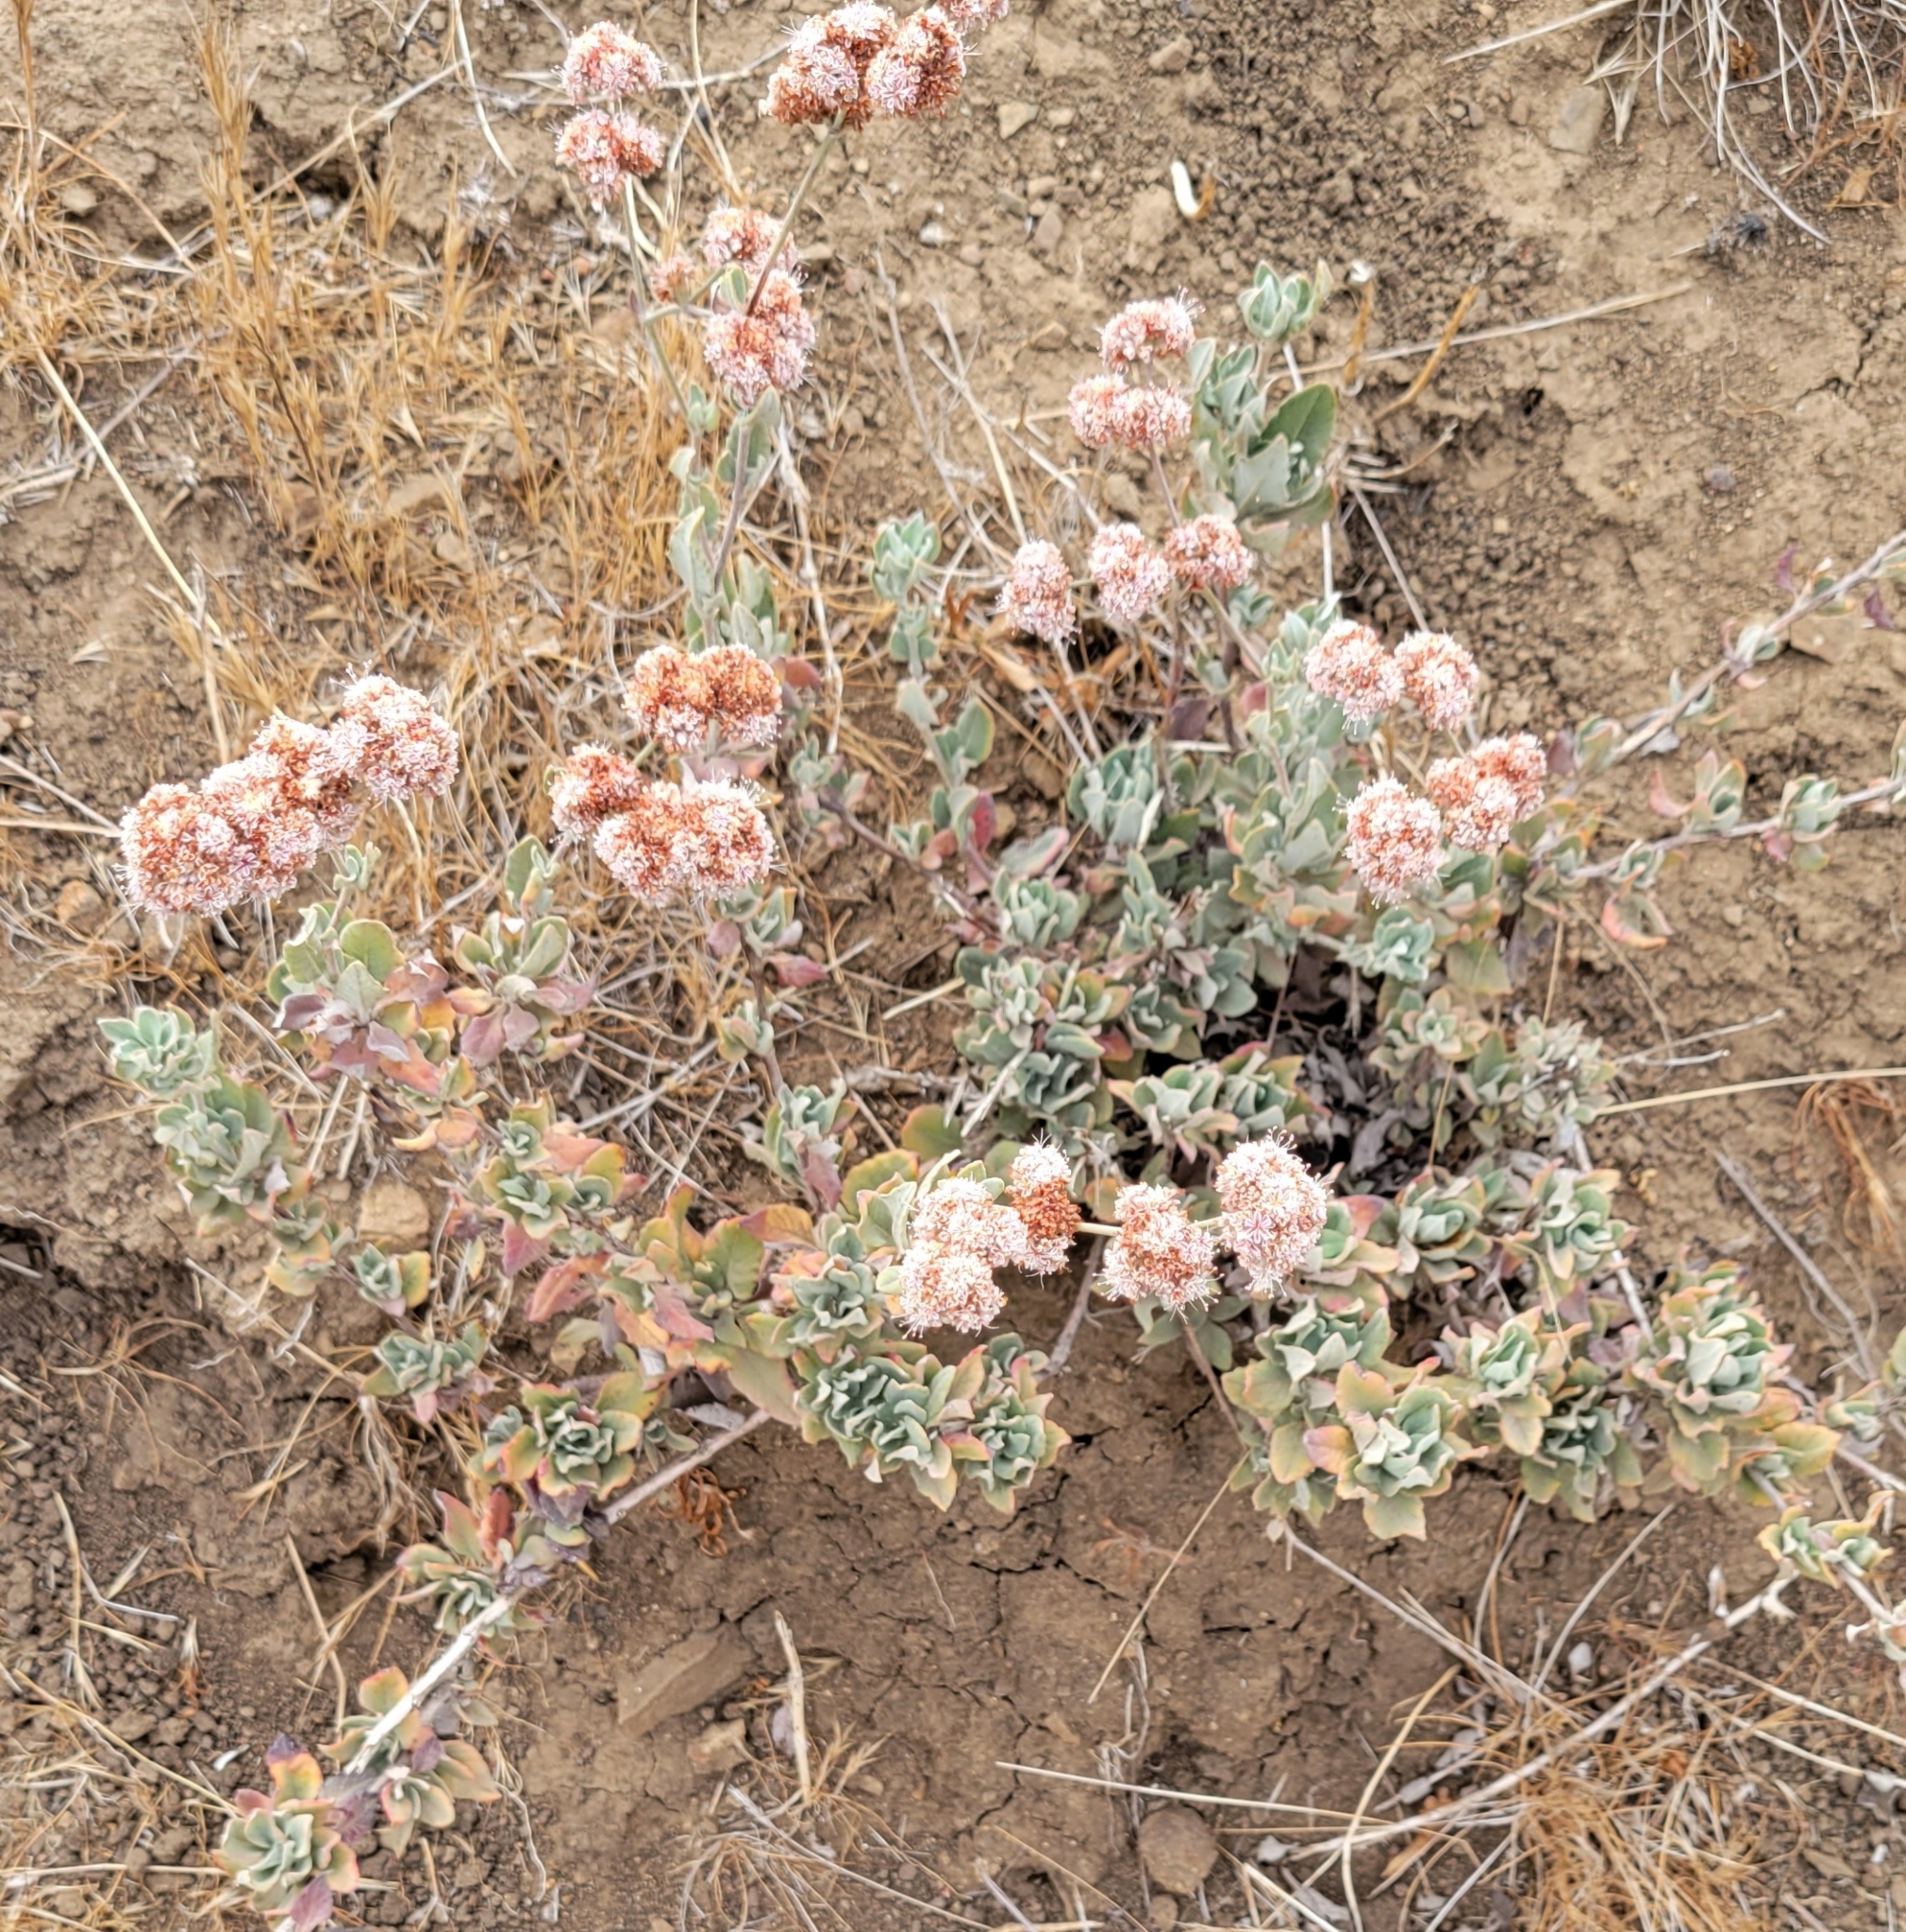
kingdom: Plantae
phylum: Tracheophyta
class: Magnoliopsida
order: Caryophyllales
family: Polygonaceae
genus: Eriogonum
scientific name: Eriogonum cinereum
